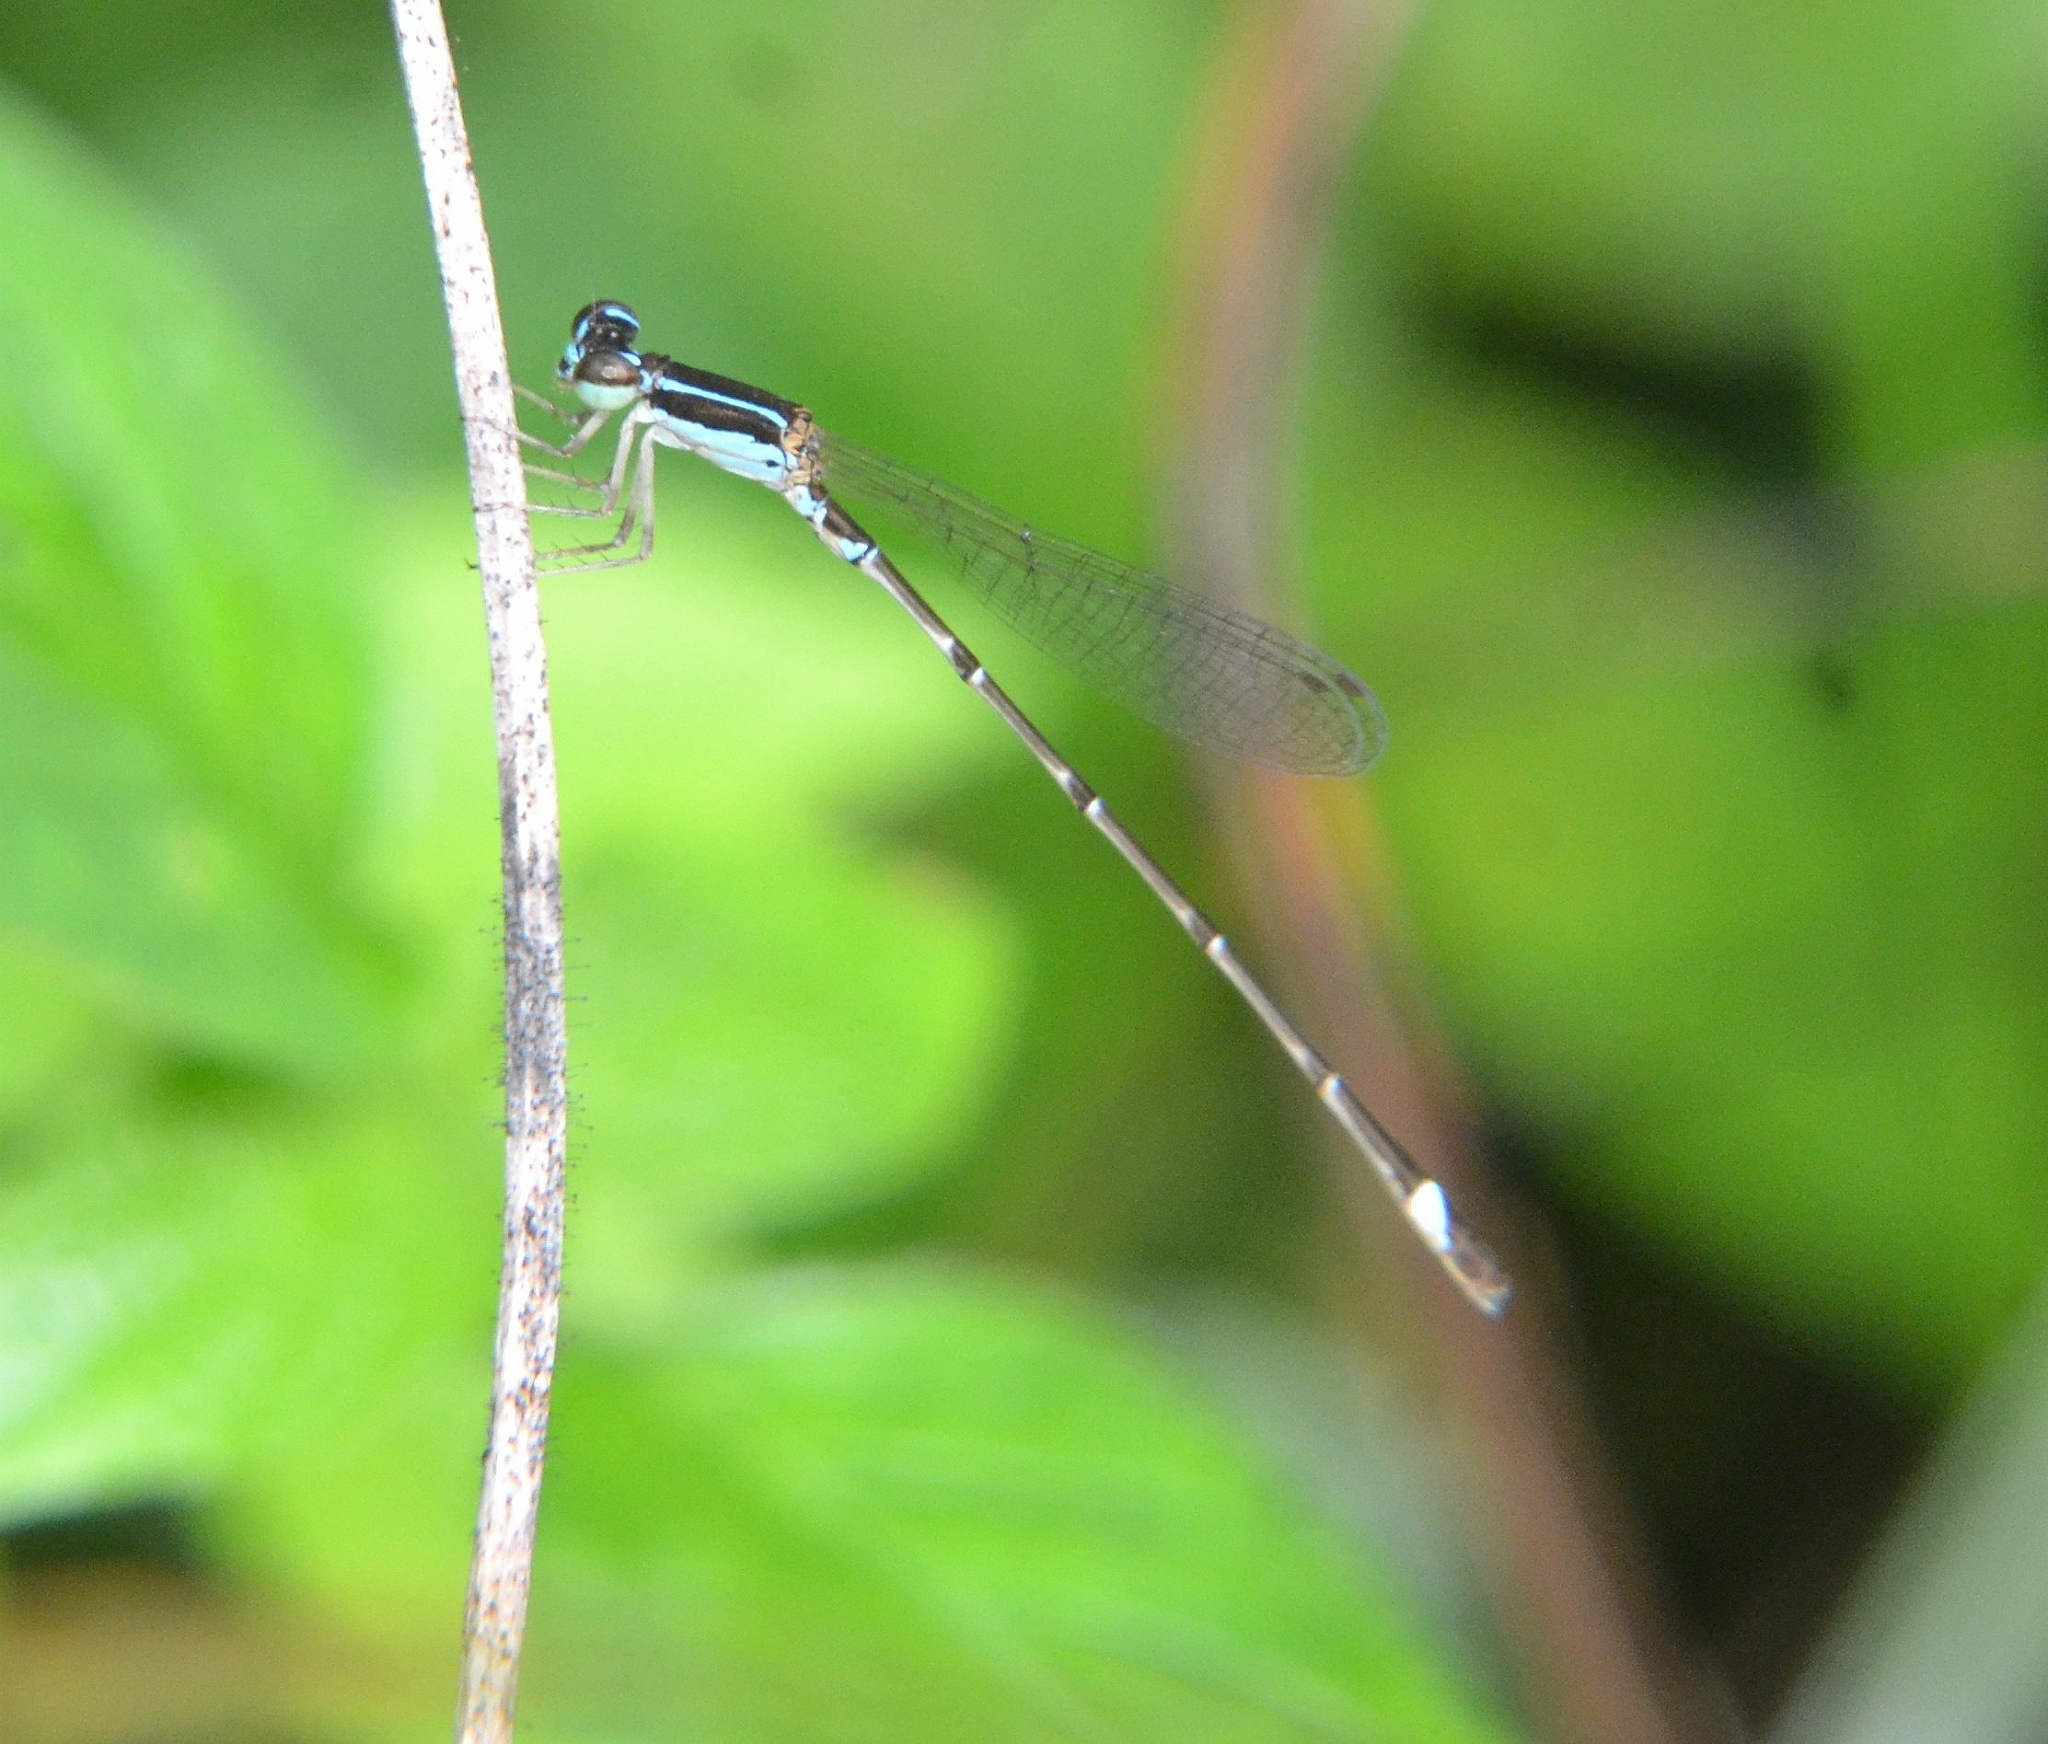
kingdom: Animalia
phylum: Arthropoda
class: Insecta
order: Odonata
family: Coenagrionidae
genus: Mortonagrion
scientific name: Mortonagrion varralli
